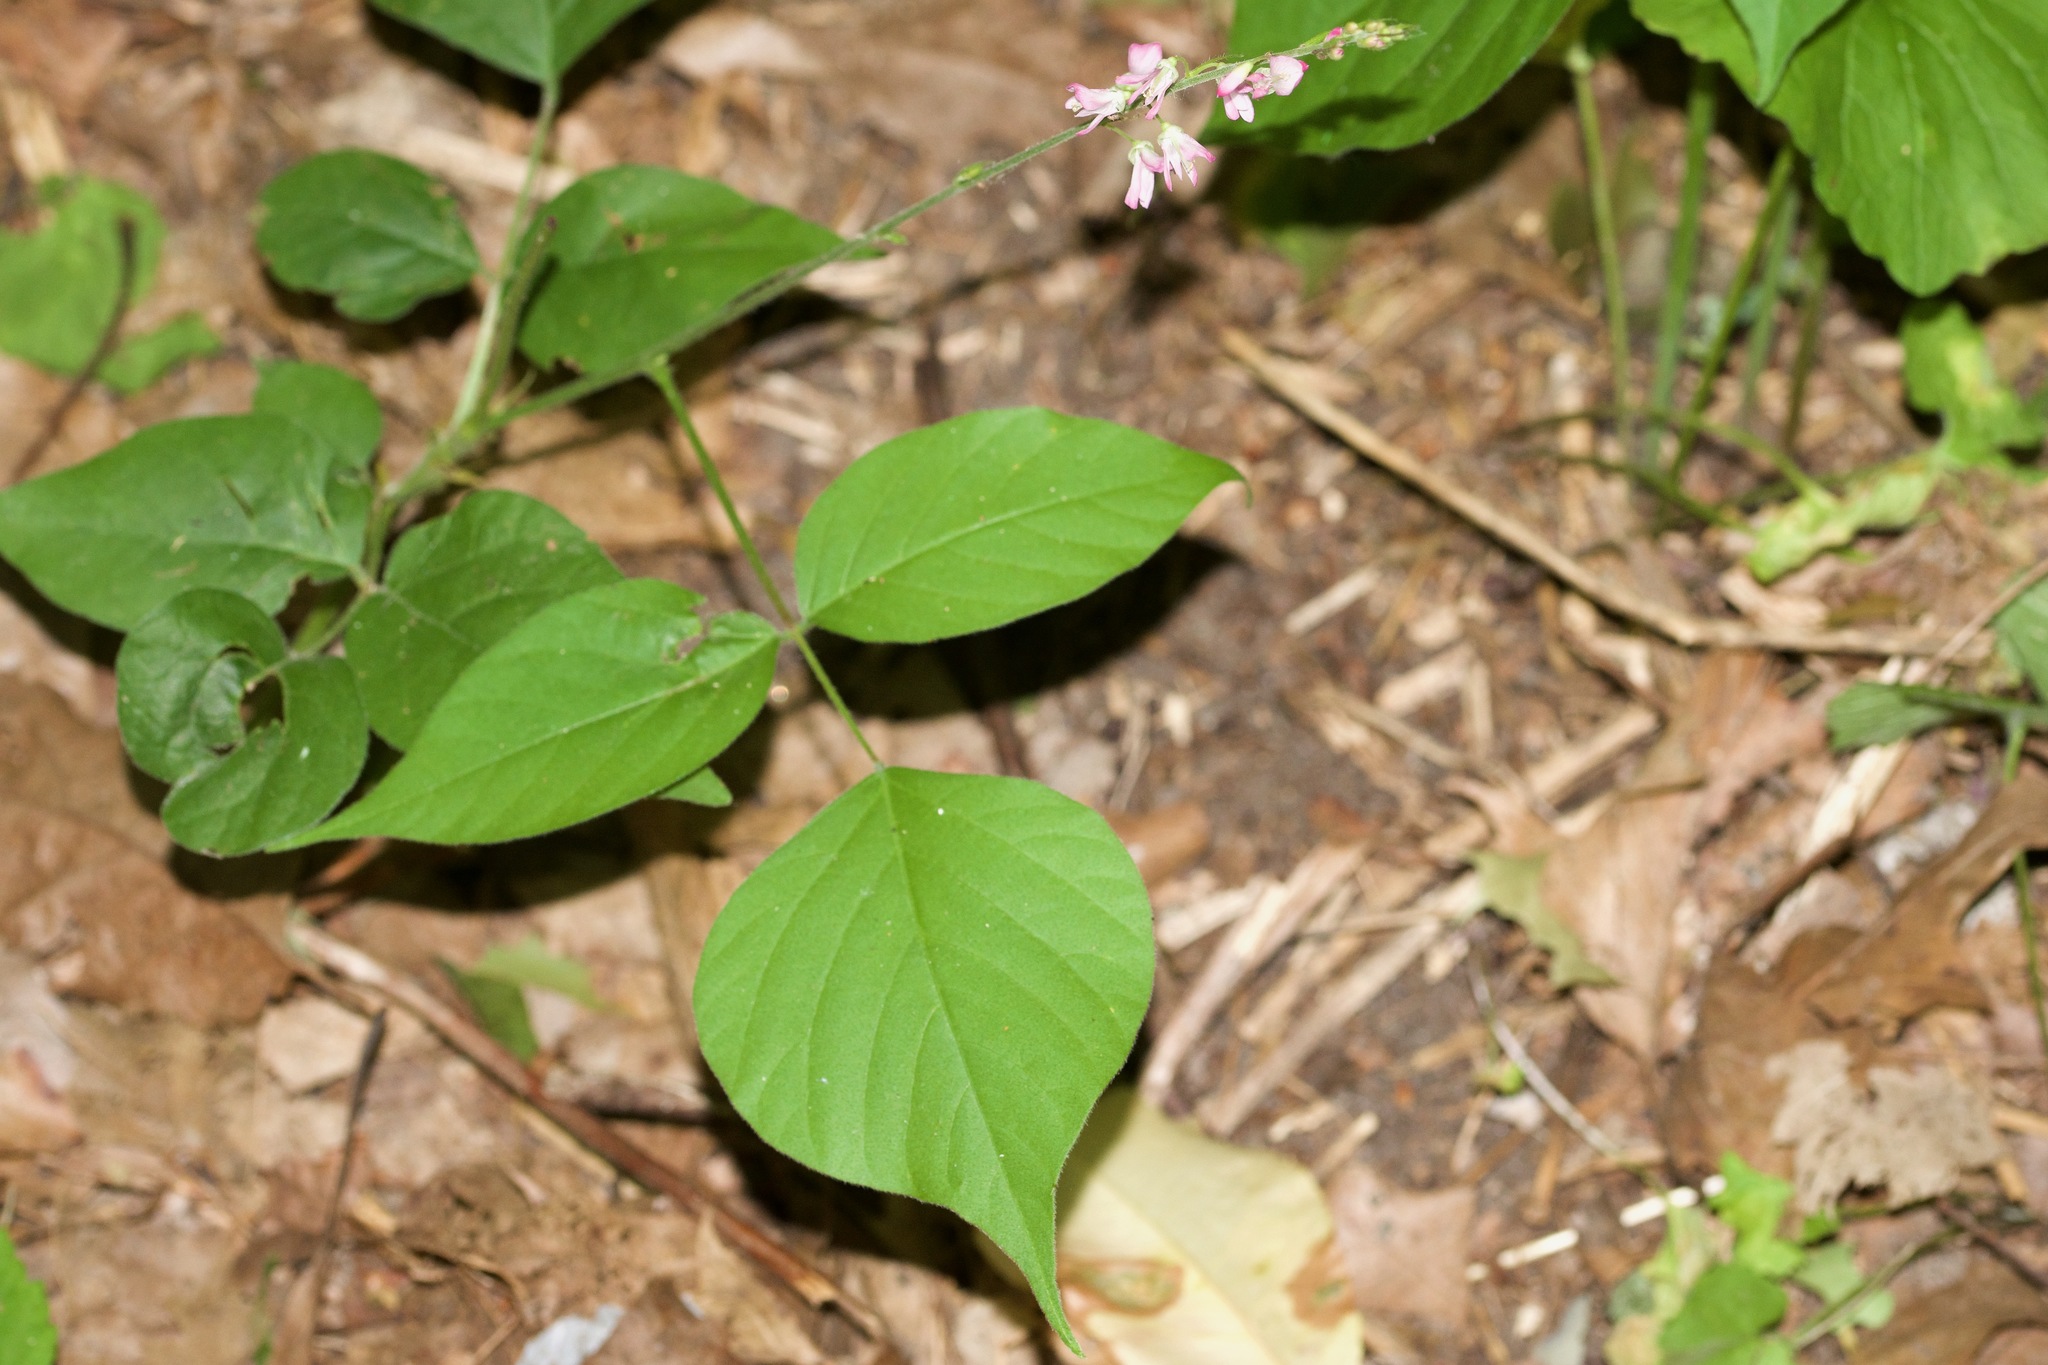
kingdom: Plantae
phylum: Tracheophyta
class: Magnoliopsida
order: Fabales
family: Fabaceae
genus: Hylodesmum
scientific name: Hylodesmum glutinosum
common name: Clustered-leaved tick-trefoil
